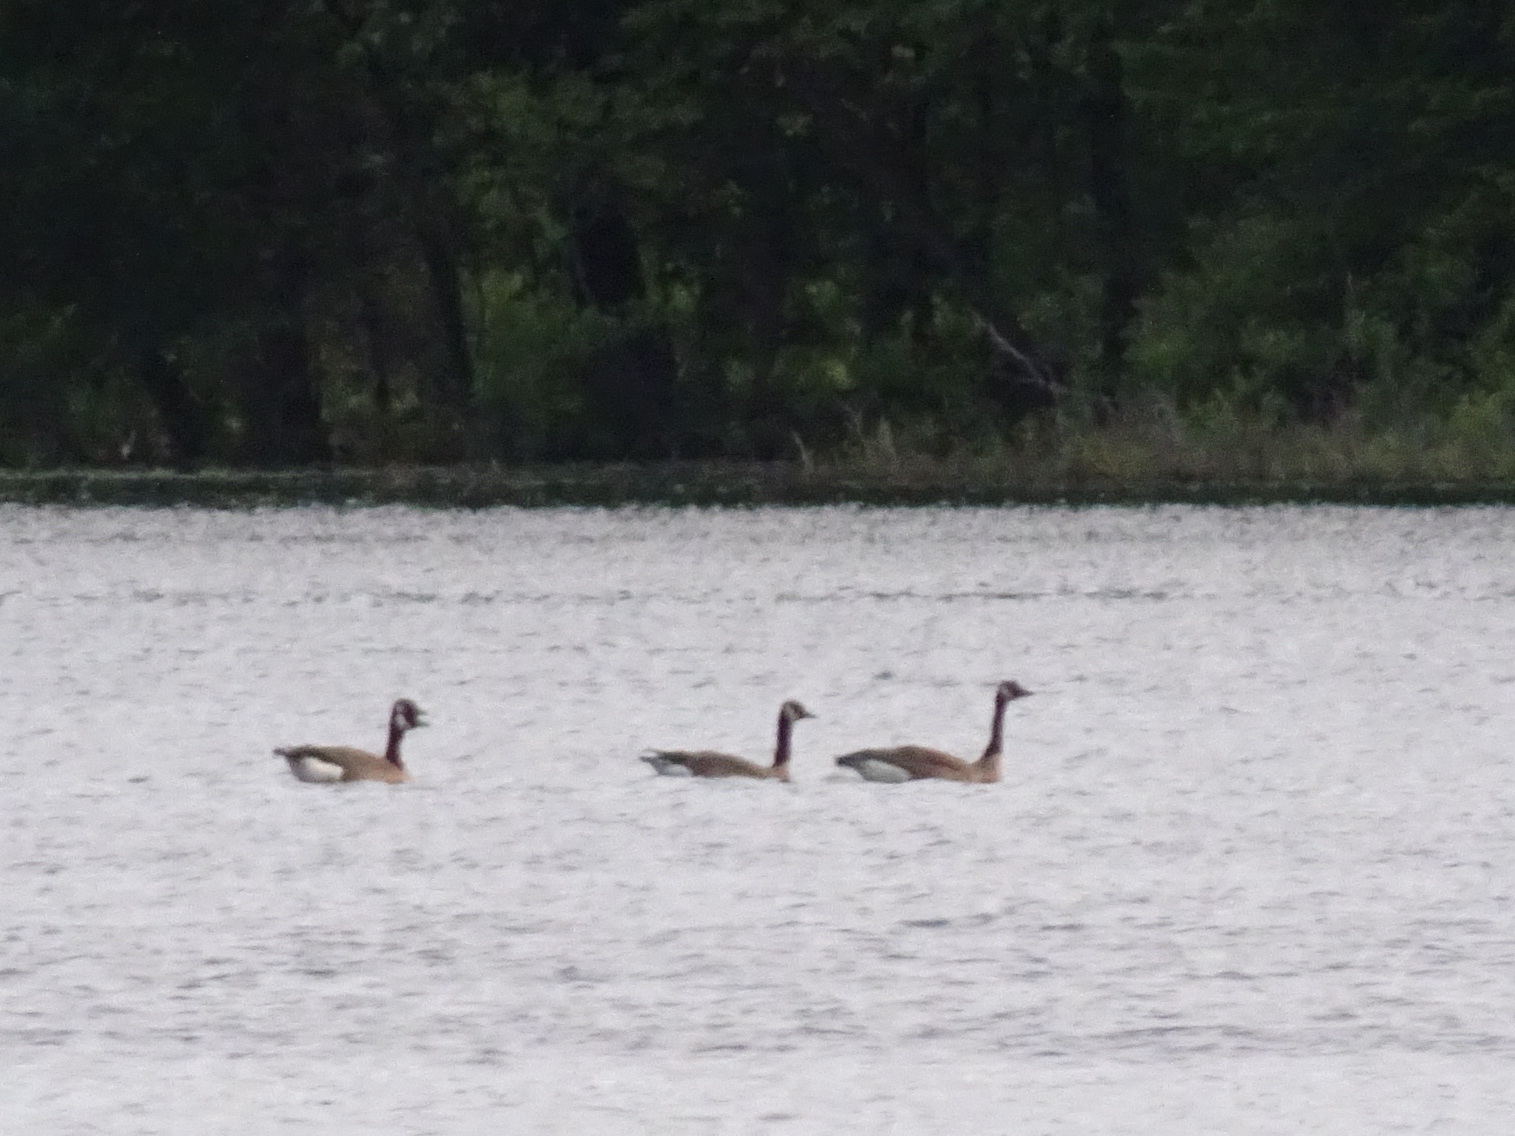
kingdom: Animalia
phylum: Chordata
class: Aves
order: Anseriformes
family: Anatidae
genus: Branta
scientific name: Branta canadensis
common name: Canada goose
